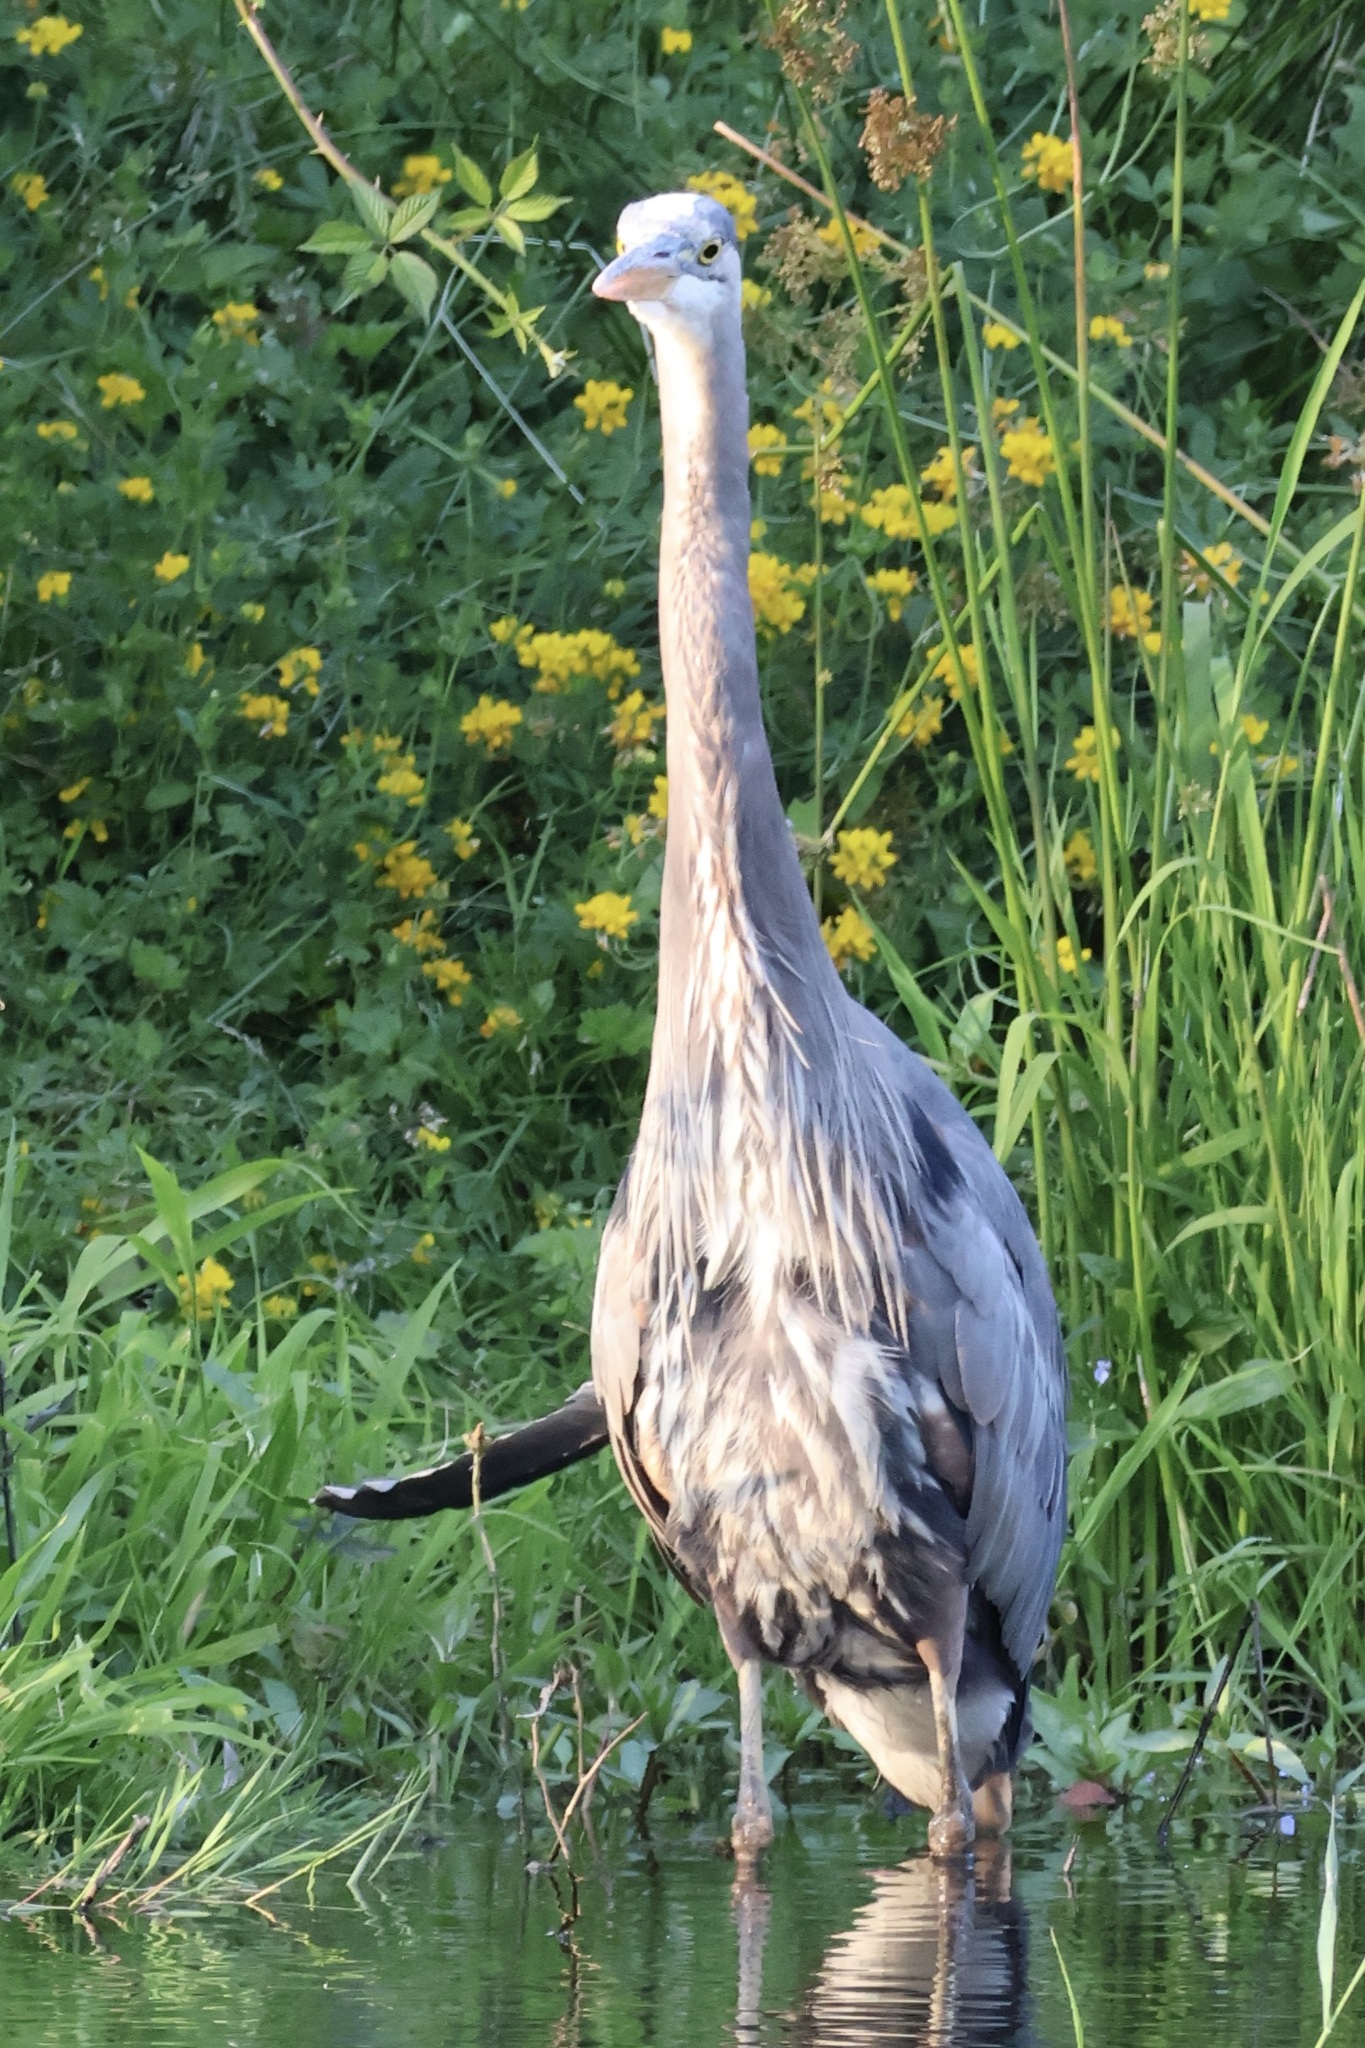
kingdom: Animalia
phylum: Chordata
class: Aves
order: Pelecaniformes
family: Ardeidae
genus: Ardea
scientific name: Ardea herodias
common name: Great blue heron
